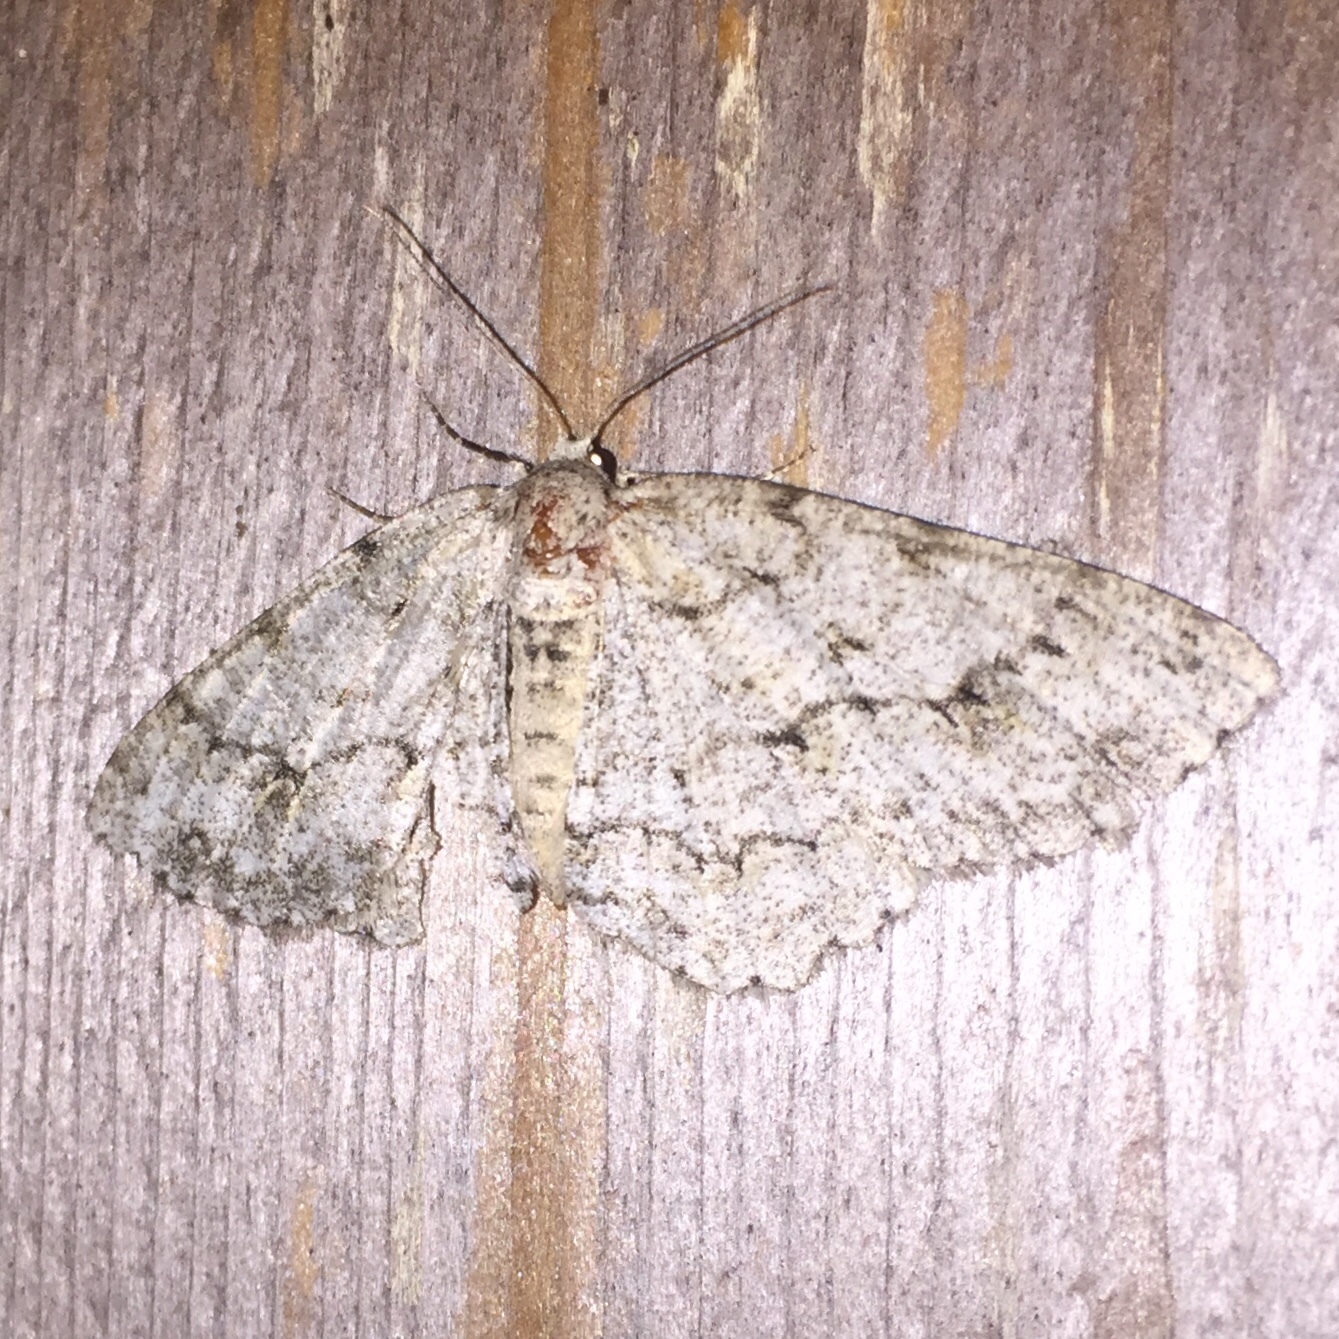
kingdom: Animalia
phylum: Arthropoda
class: Insecta
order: Lepidoptera
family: Geometridae
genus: Ectropis
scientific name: Ectropis crepuscularia
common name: Engrailed
